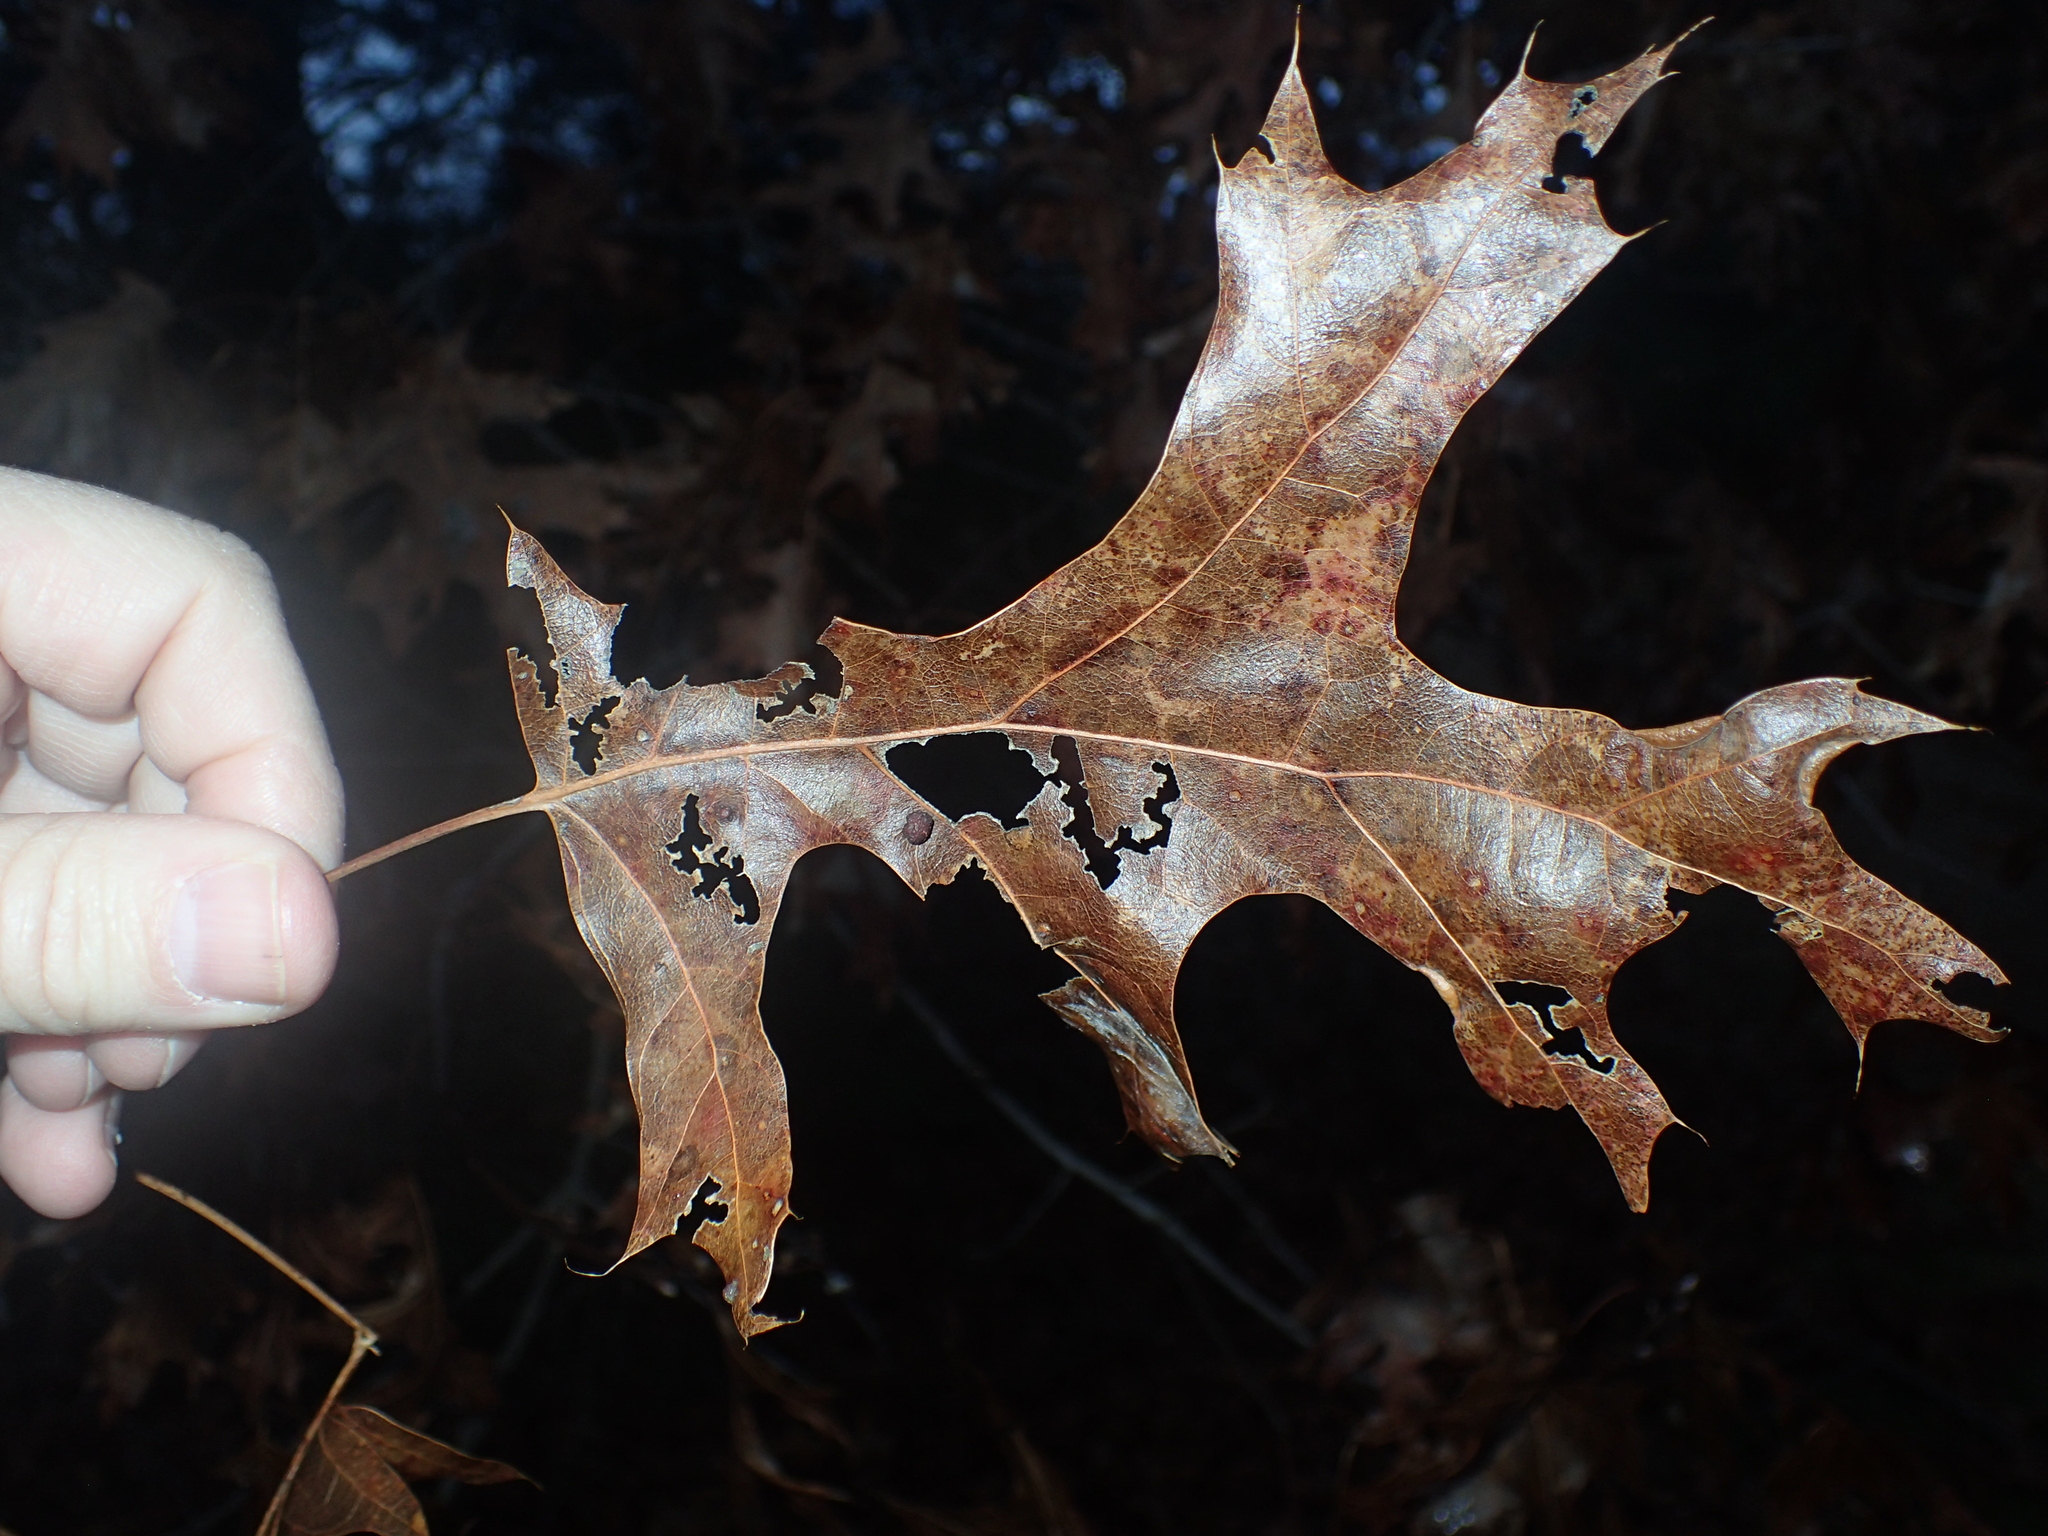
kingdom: Plantae
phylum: Tracheophyta
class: Magnoliopsida
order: Fagales
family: Fagaceae
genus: Quercus
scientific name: Quercus coccinea
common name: Scarlet oak
